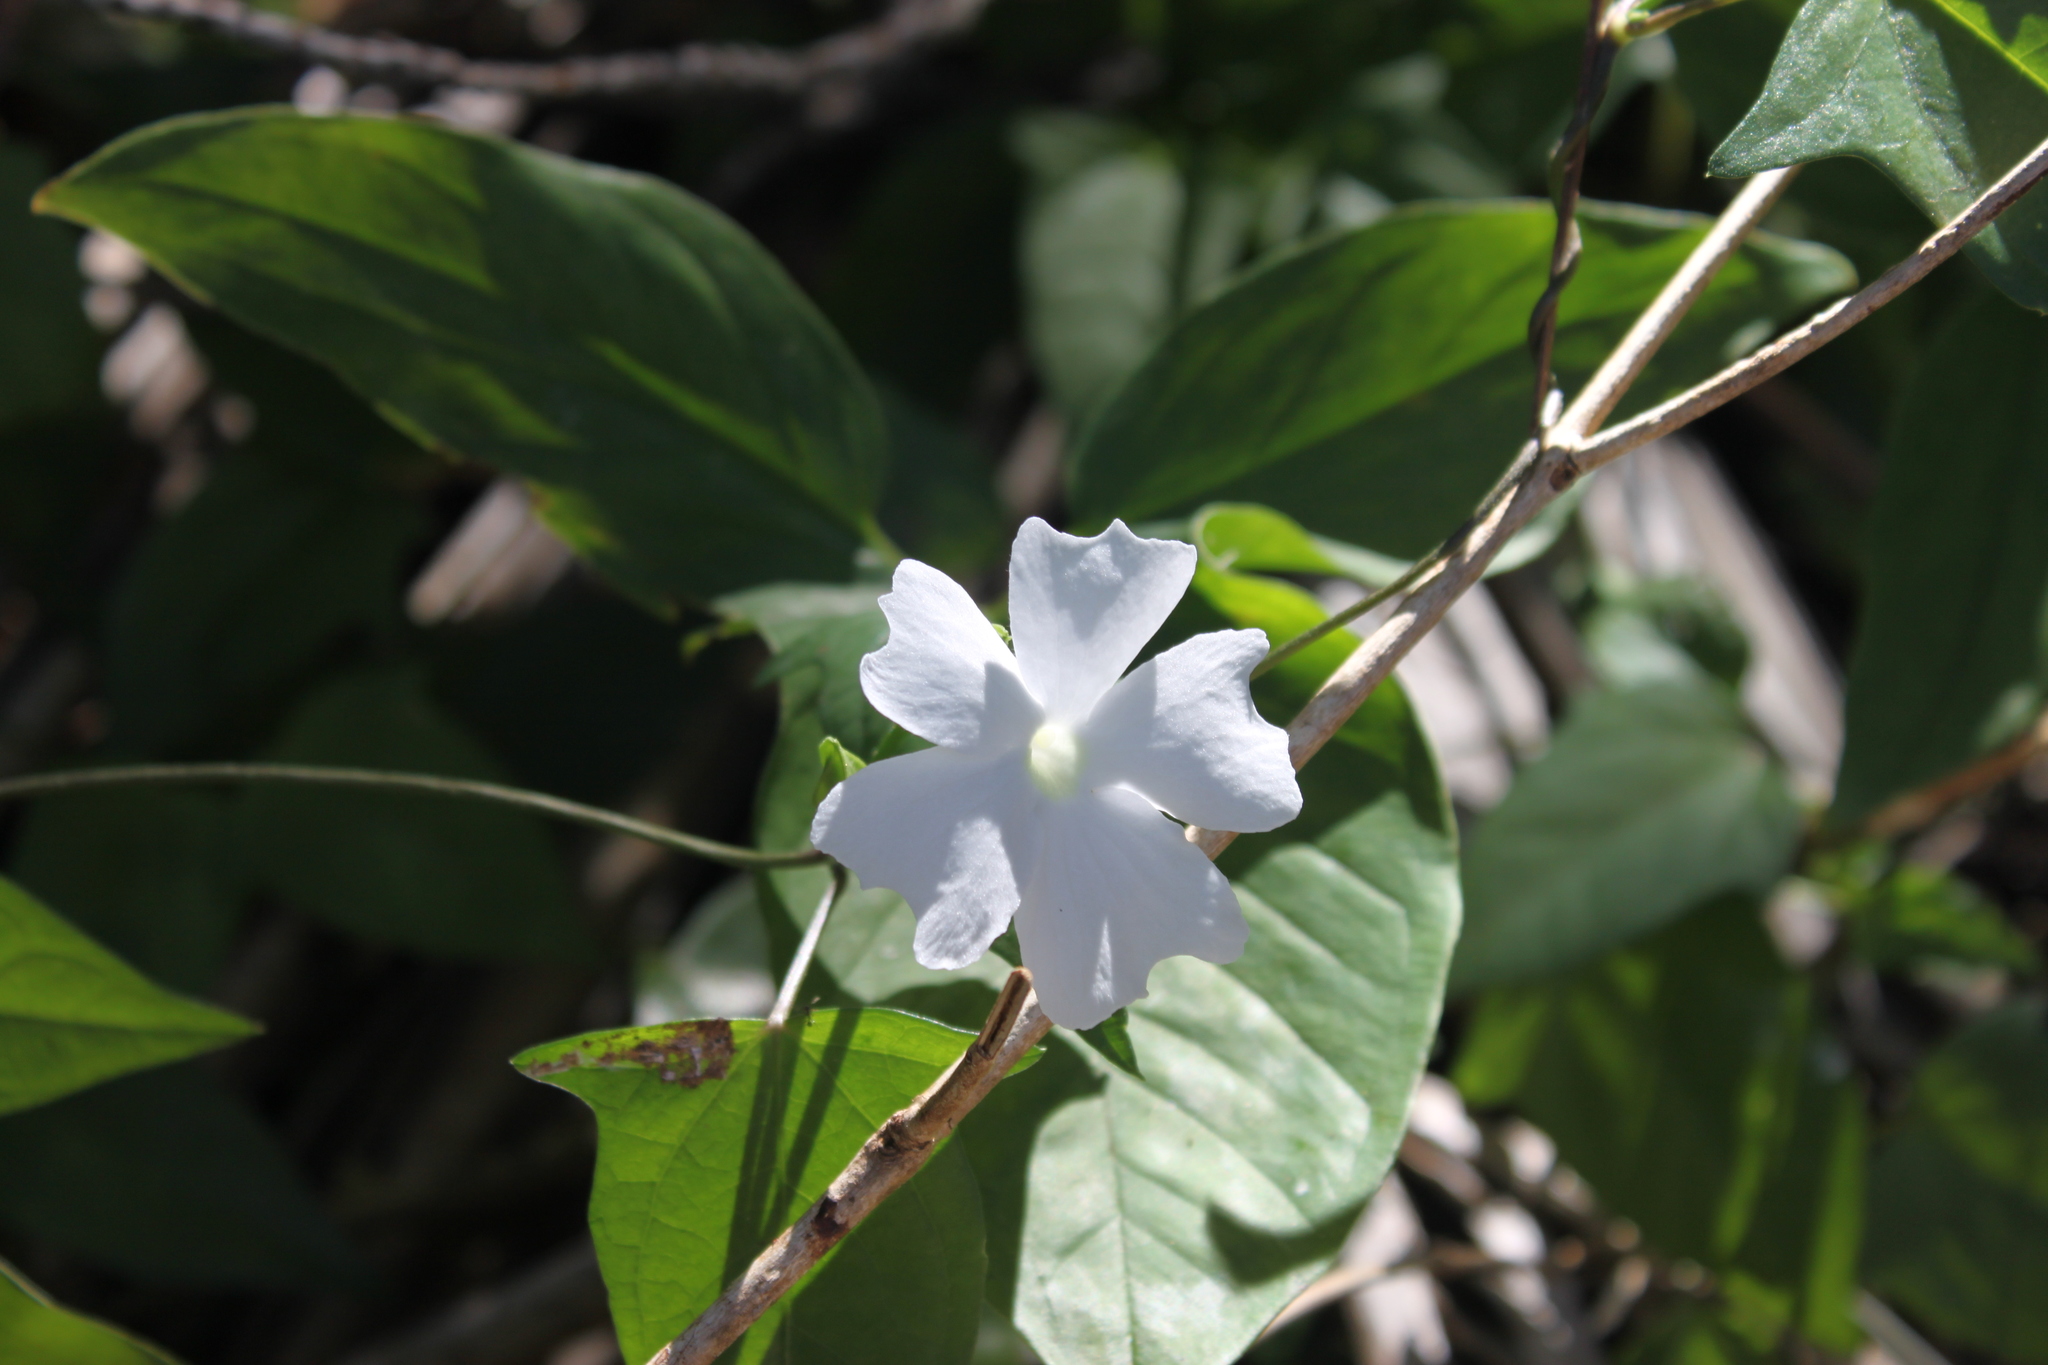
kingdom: Plantae
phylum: Tracheophyta
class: Magnoliopsida
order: Lamiales
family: Acanthaceae
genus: Thunbergia
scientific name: Thunbergia fragrans
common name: Whitelady
